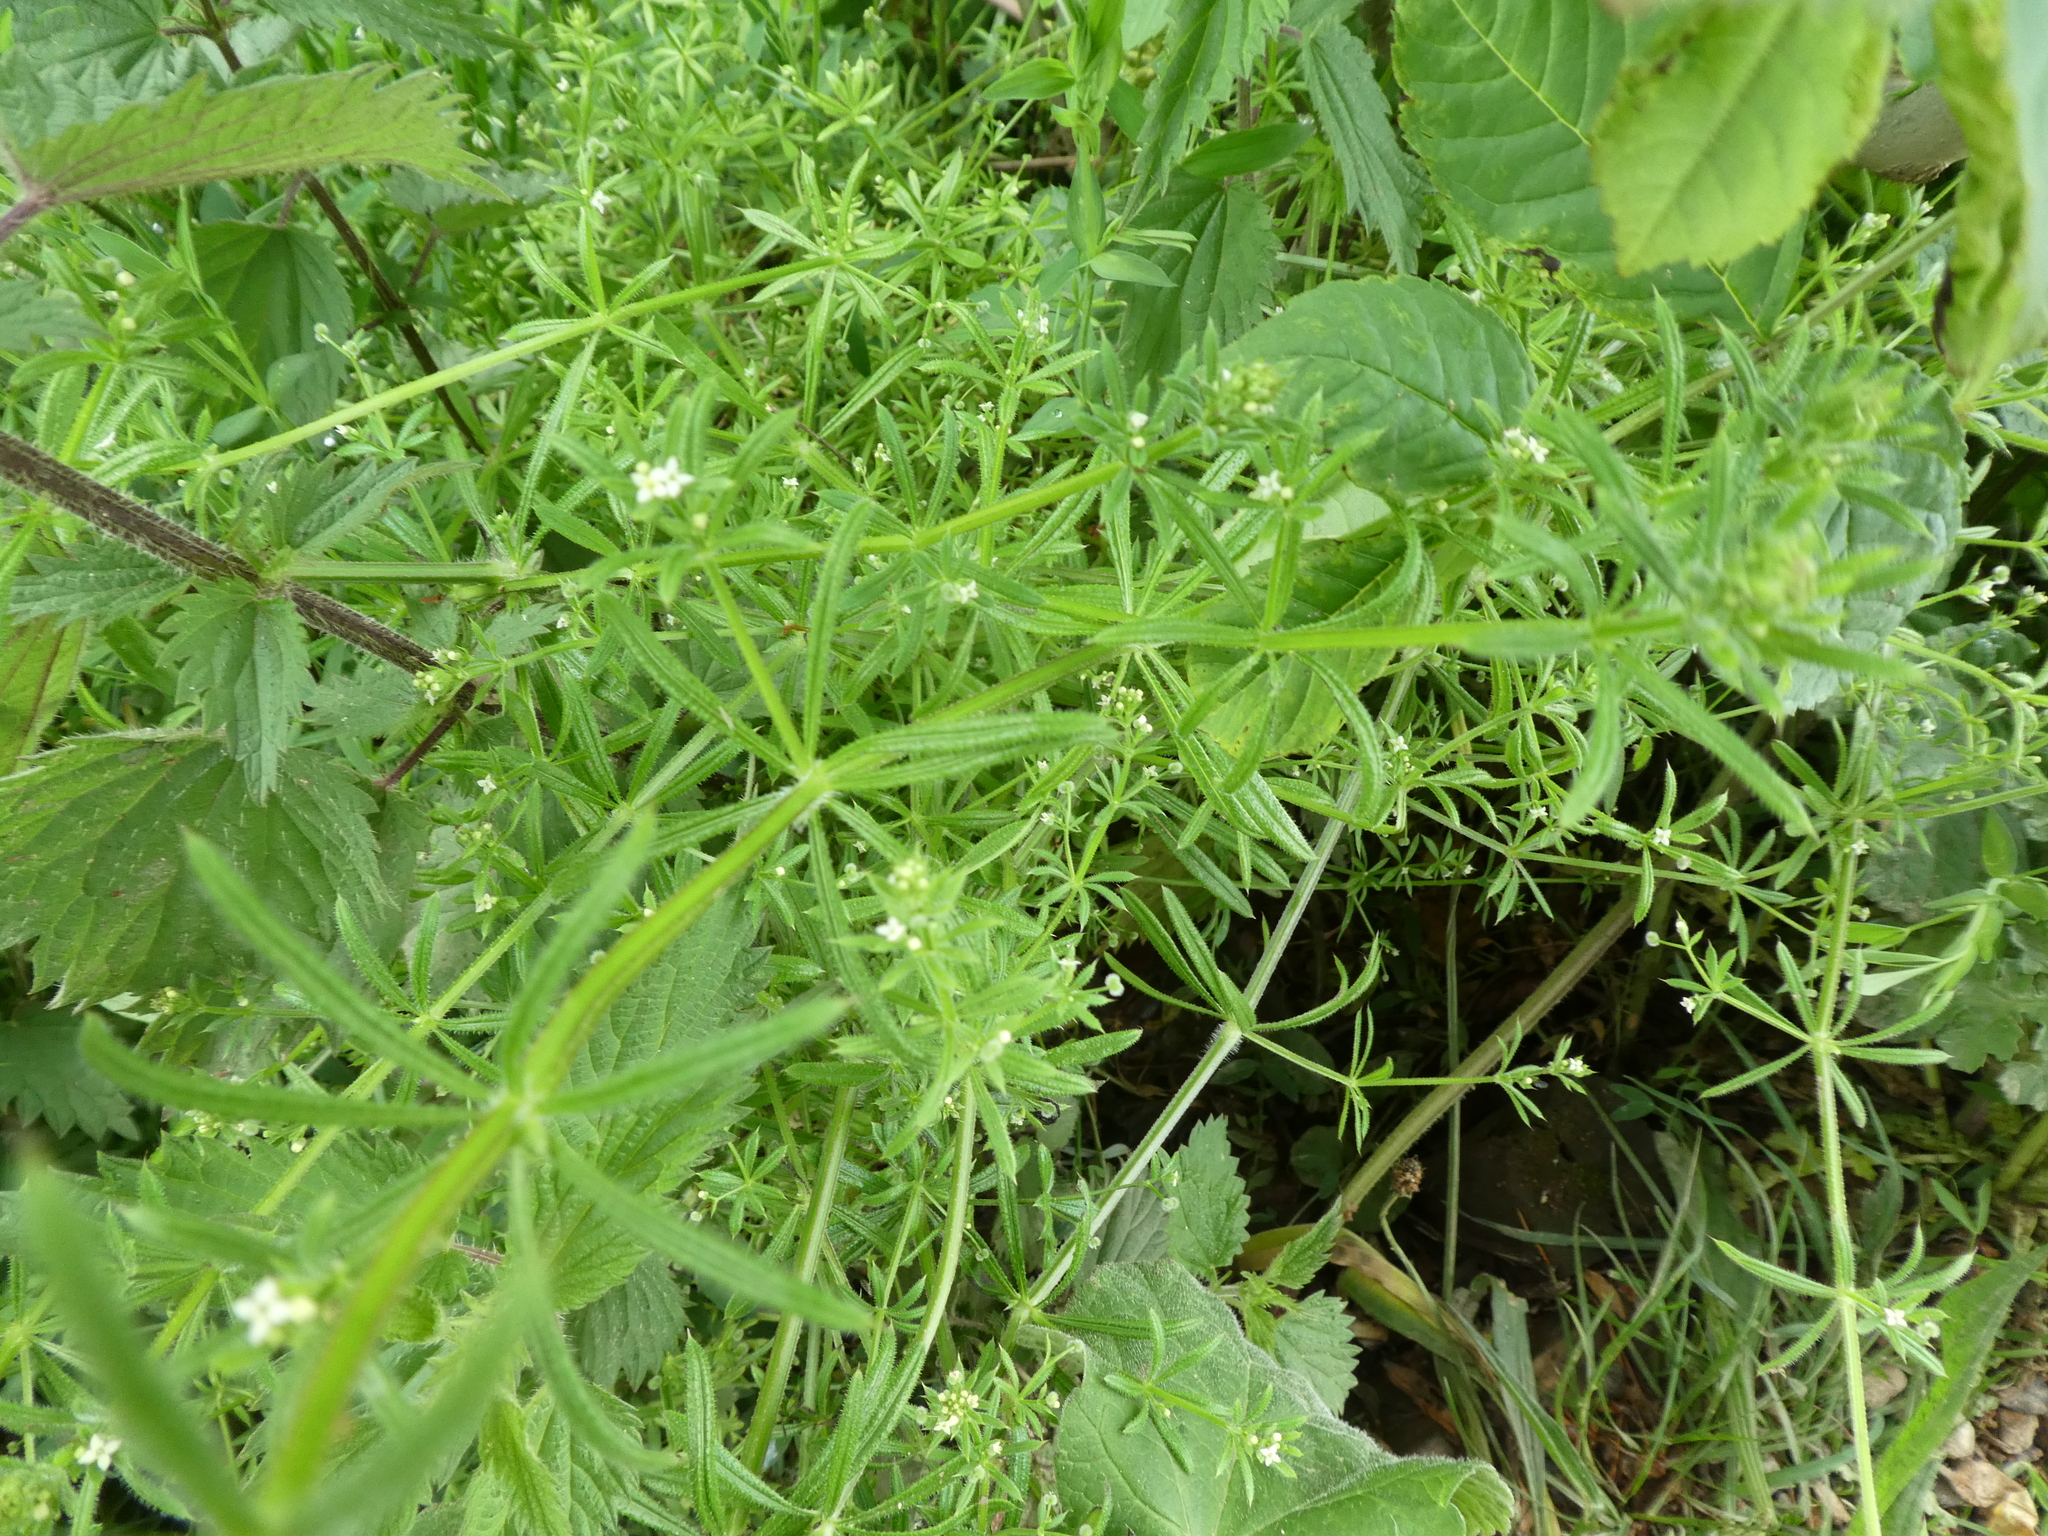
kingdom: Plantae
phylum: Tracheophyta
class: Magnoliopsida
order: Gentianales
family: Rubiaceae
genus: Galium
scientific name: Galium aparine
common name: Cleavers
